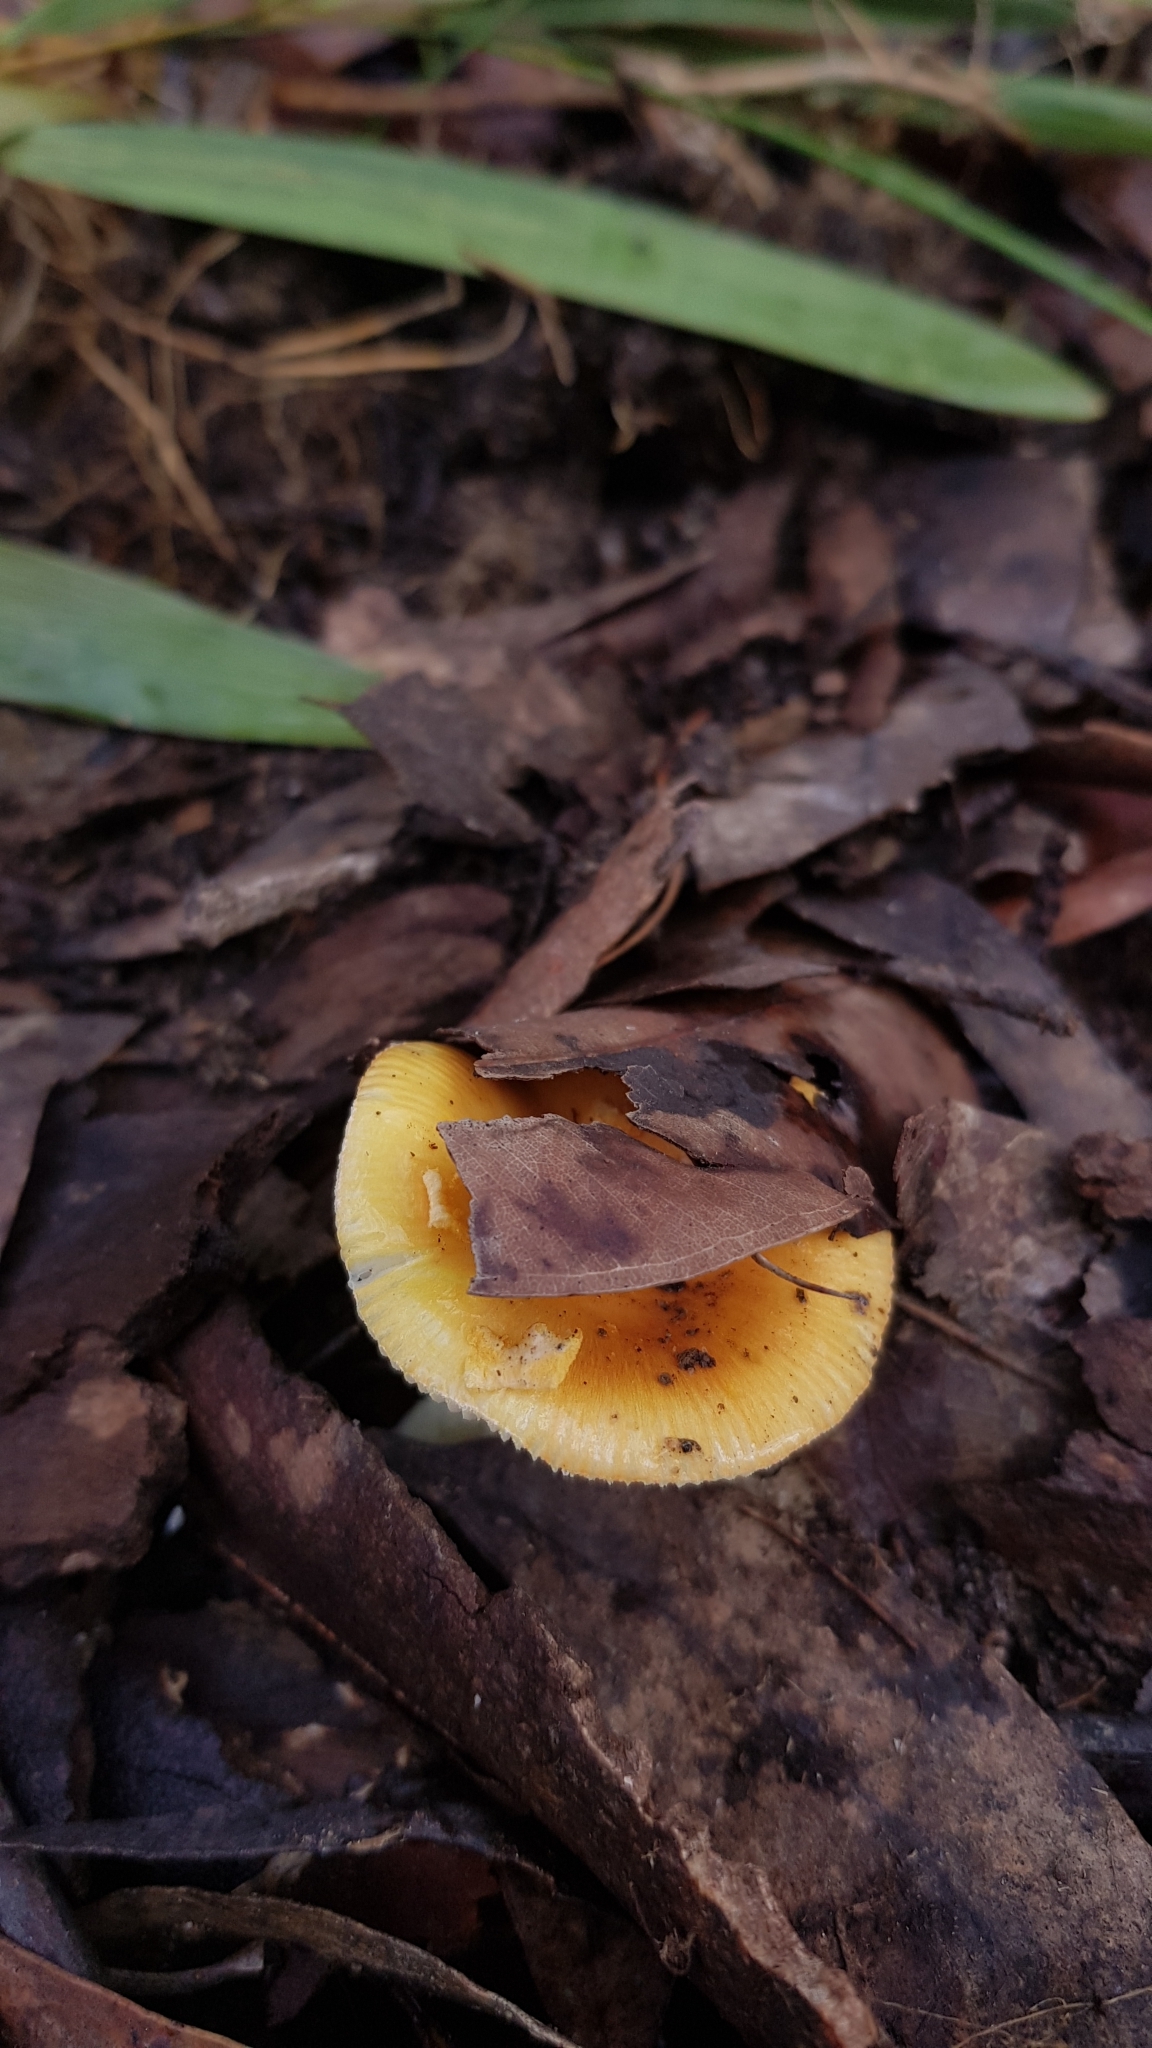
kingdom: Fungi
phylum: Basidiomycota
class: Agaricomycetes
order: Agaricales
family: Amanitaceae
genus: Amanita
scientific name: Amanita xanthocephala
